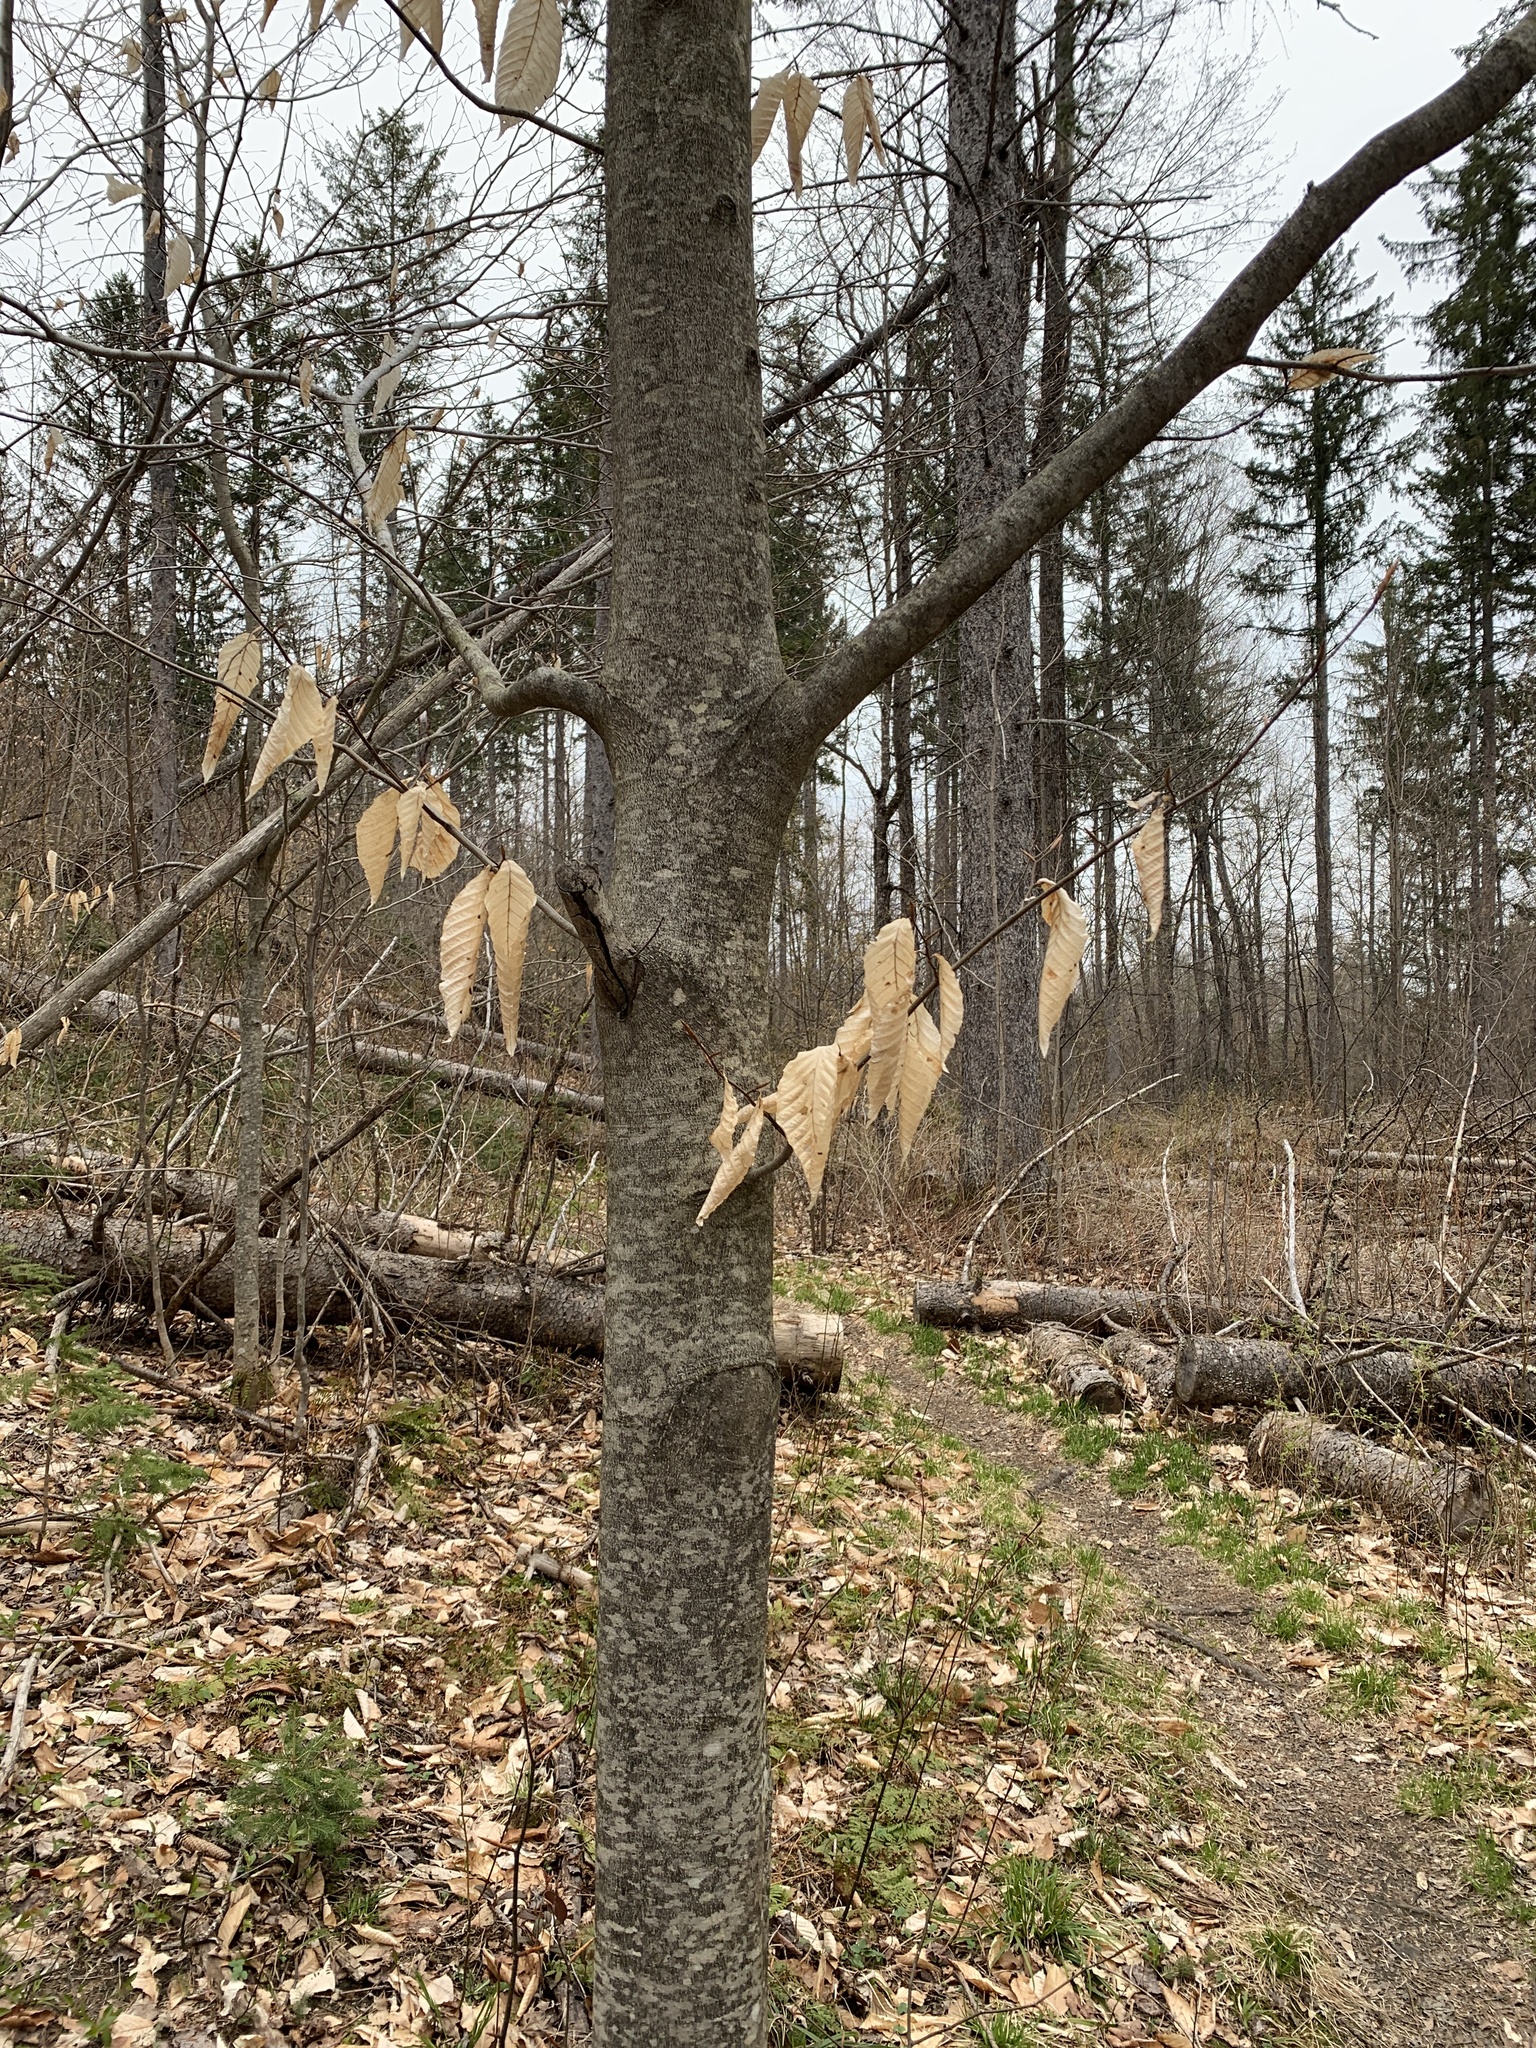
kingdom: Plantae
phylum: Tracheophyta
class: Magnoliopsida
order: Fagales
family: Fagaceae
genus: Fagus
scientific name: Fagus grandifolia
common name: American beech
